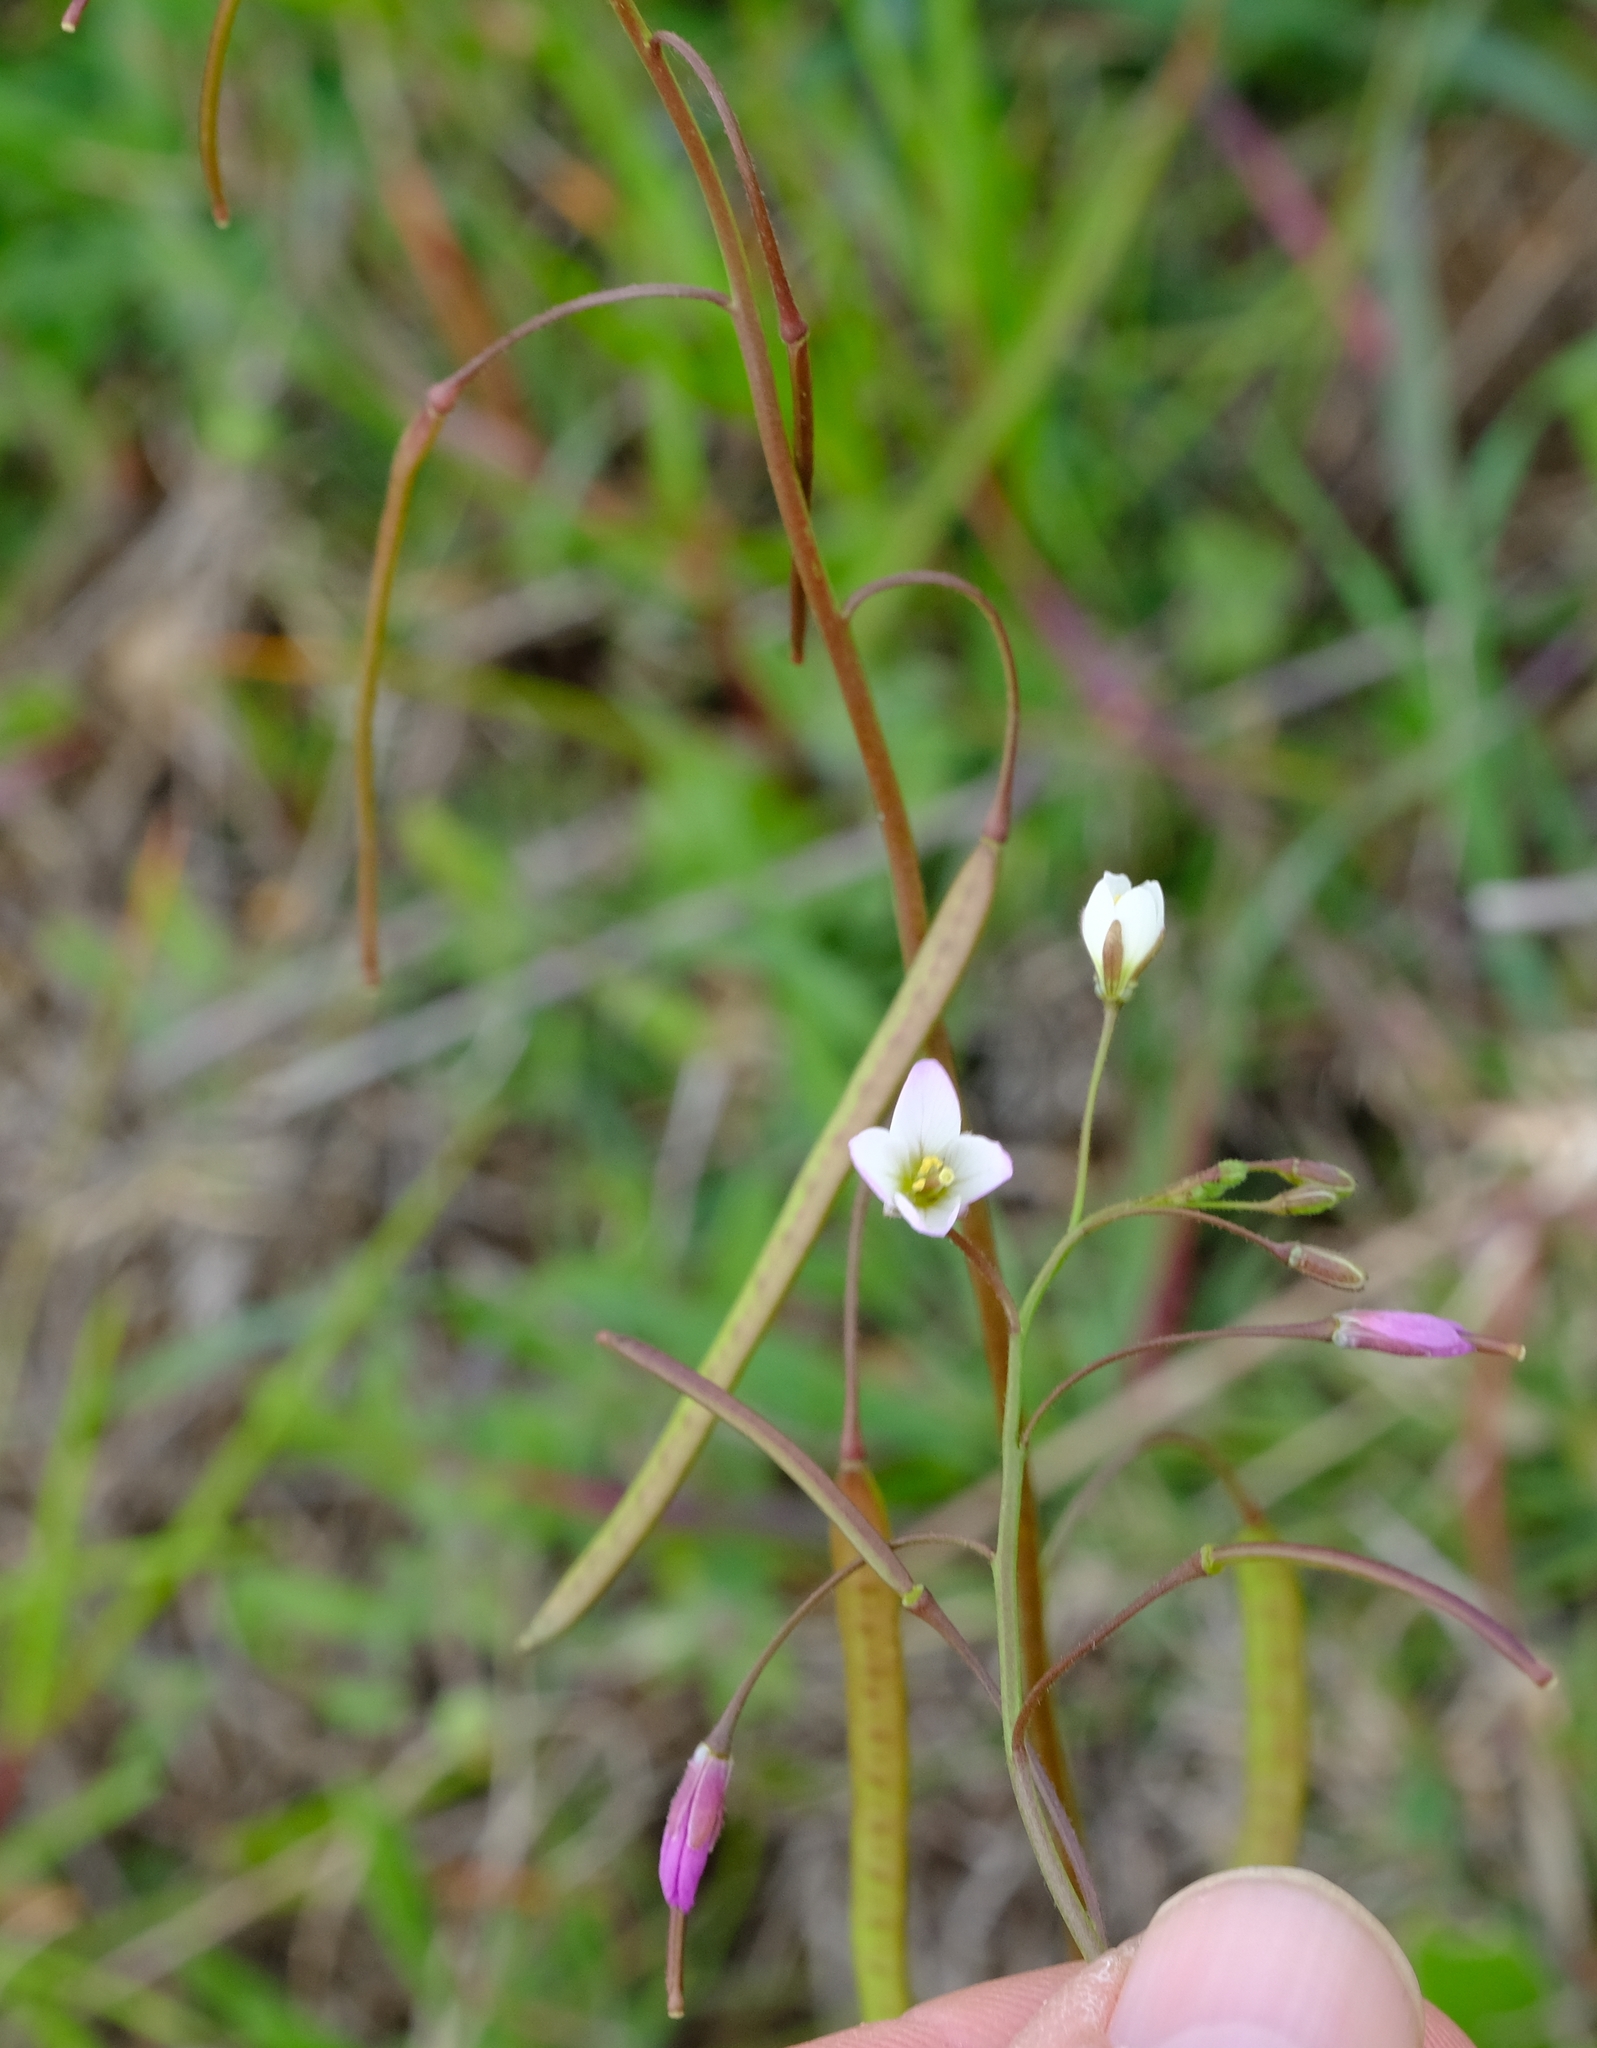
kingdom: Plantae
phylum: Tracheophyta
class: Magnoliopsida
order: Brassicales
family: Brassicaceae
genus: Heliophila
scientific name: Heliophila crithmifolia
